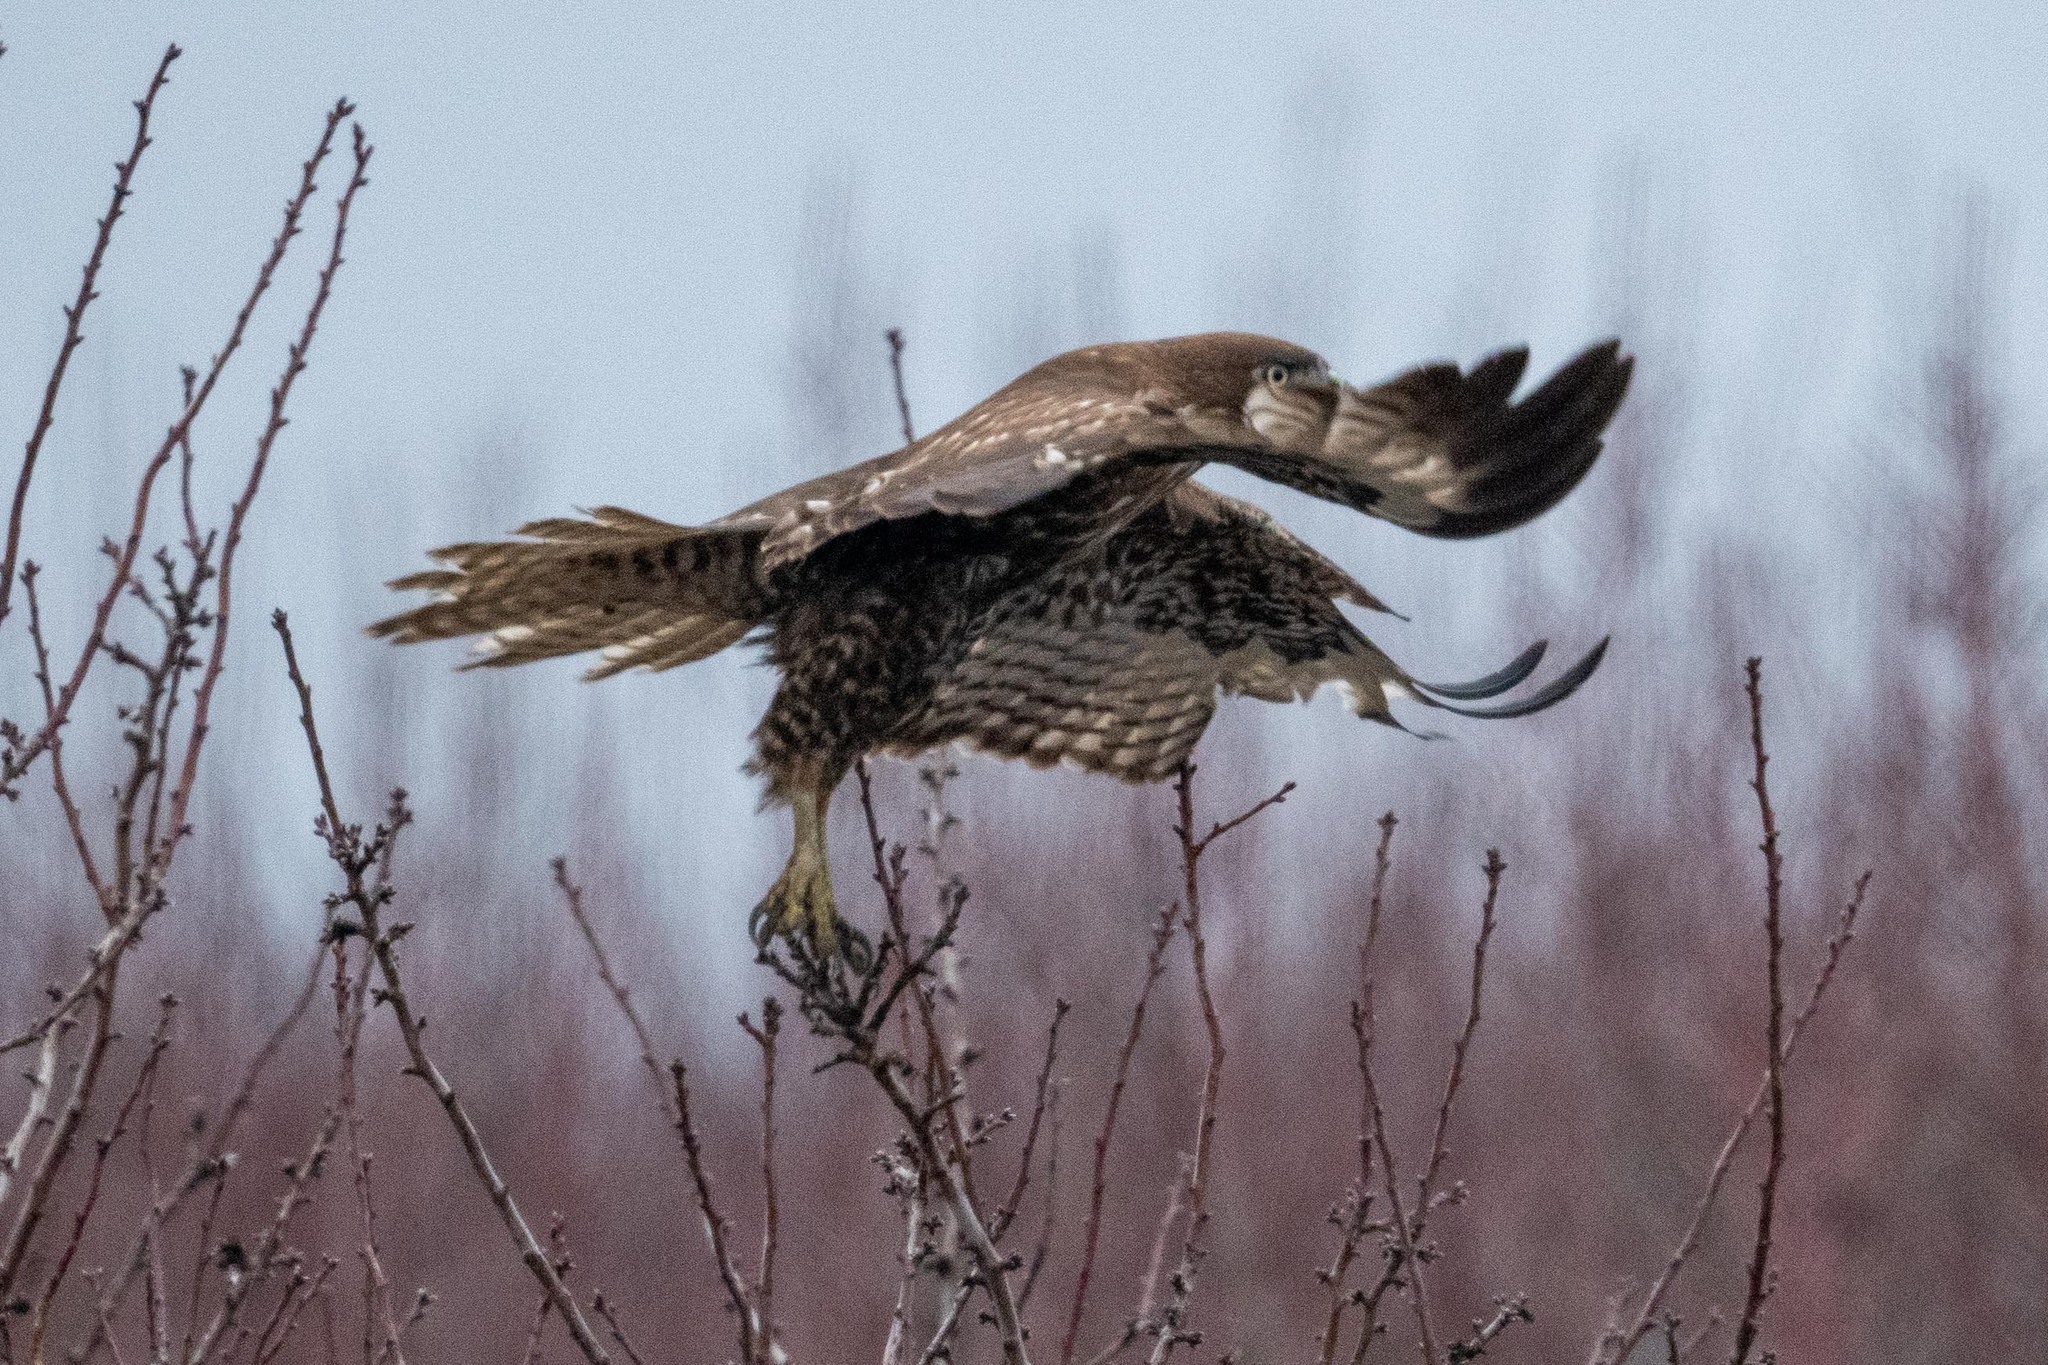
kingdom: Animalia
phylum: Chordata
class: Aves
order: Accipitriformes
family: Accipitridae
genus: Buteo
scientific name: Buteo jamaicensis
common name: Red-tailed hawk
